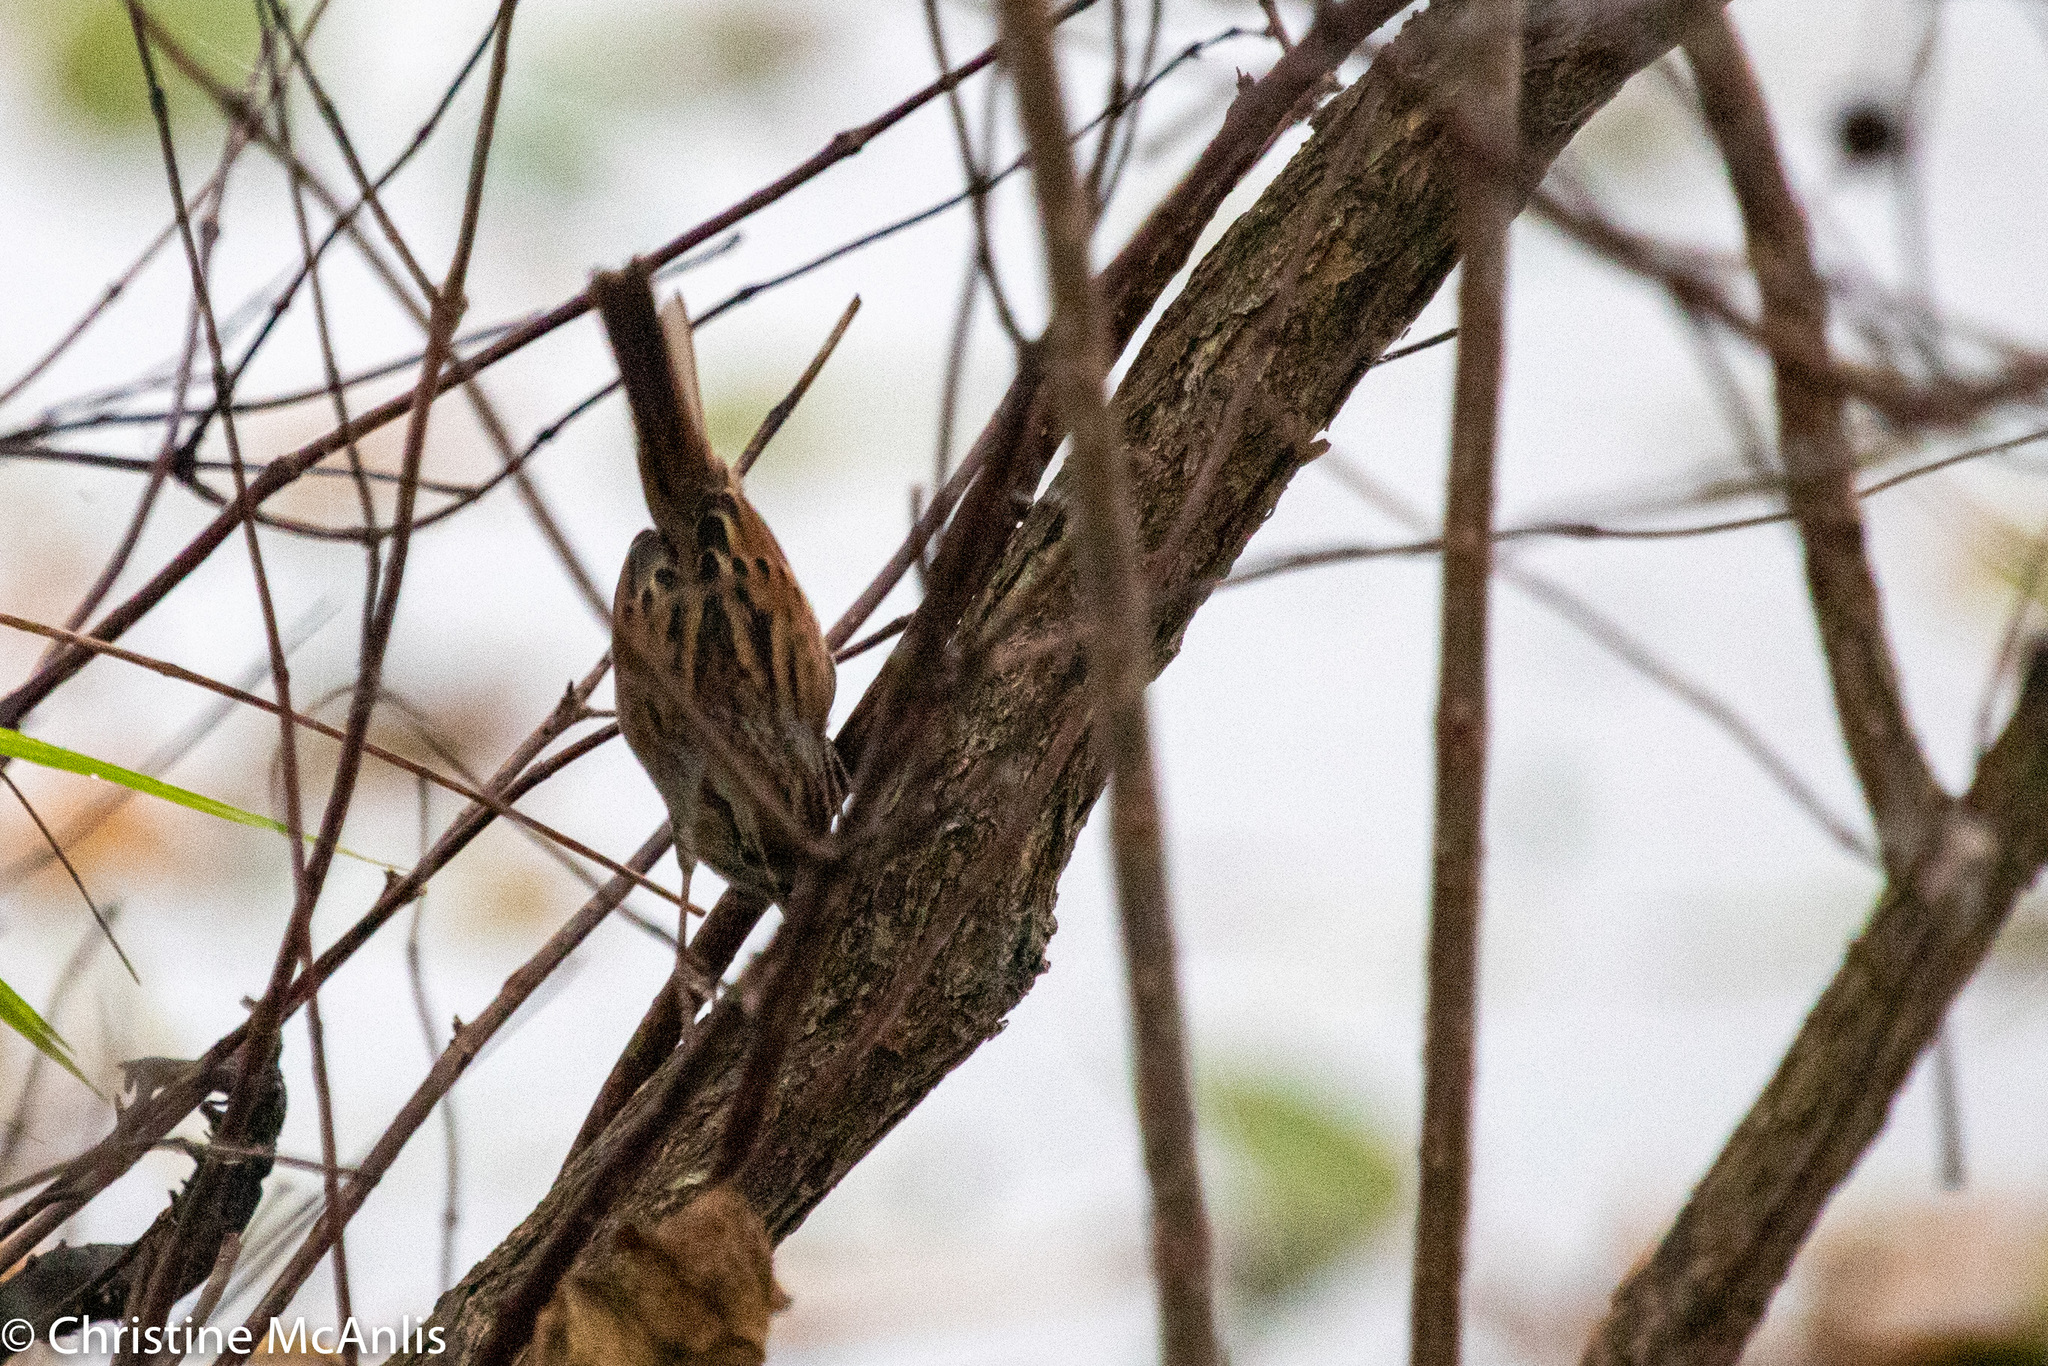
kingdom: Animalia
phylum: Chordata
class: Aves
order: Passeriformes
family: Passerellidae
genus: Melospiza
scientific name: Melospiza georgiana
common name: Swamp sparrow
